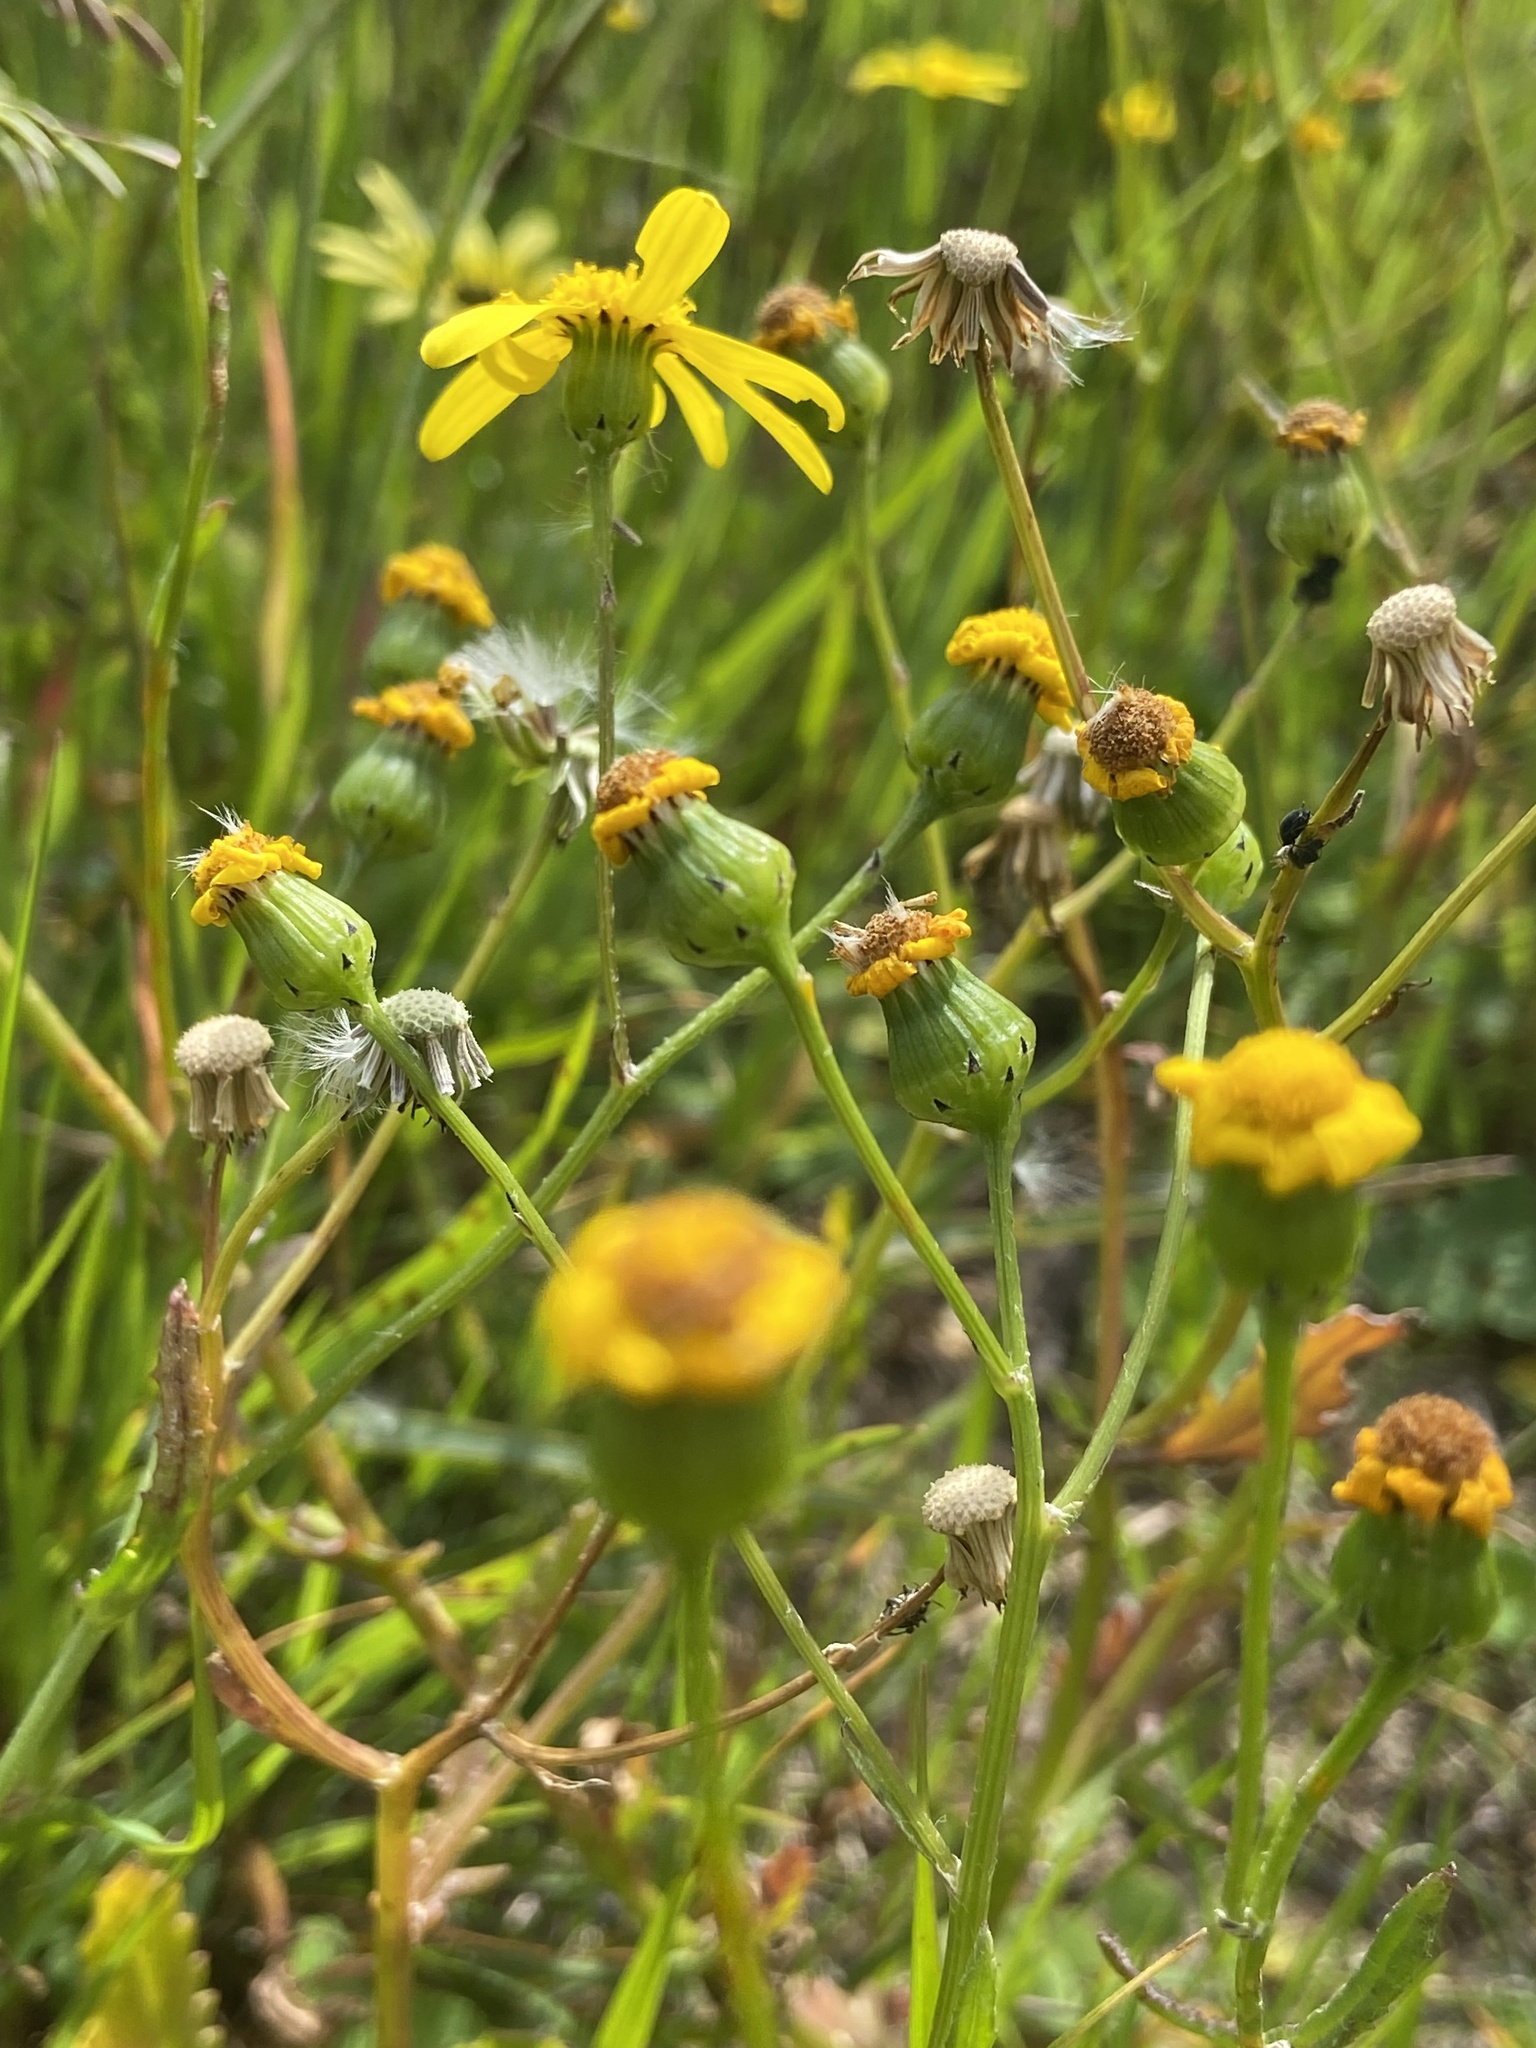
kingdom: Plantae
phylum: Tracheophyta
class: Magnoliopsida
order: Asterales
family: Asteraceae
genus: Senecio
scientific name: Senecio littoreus
